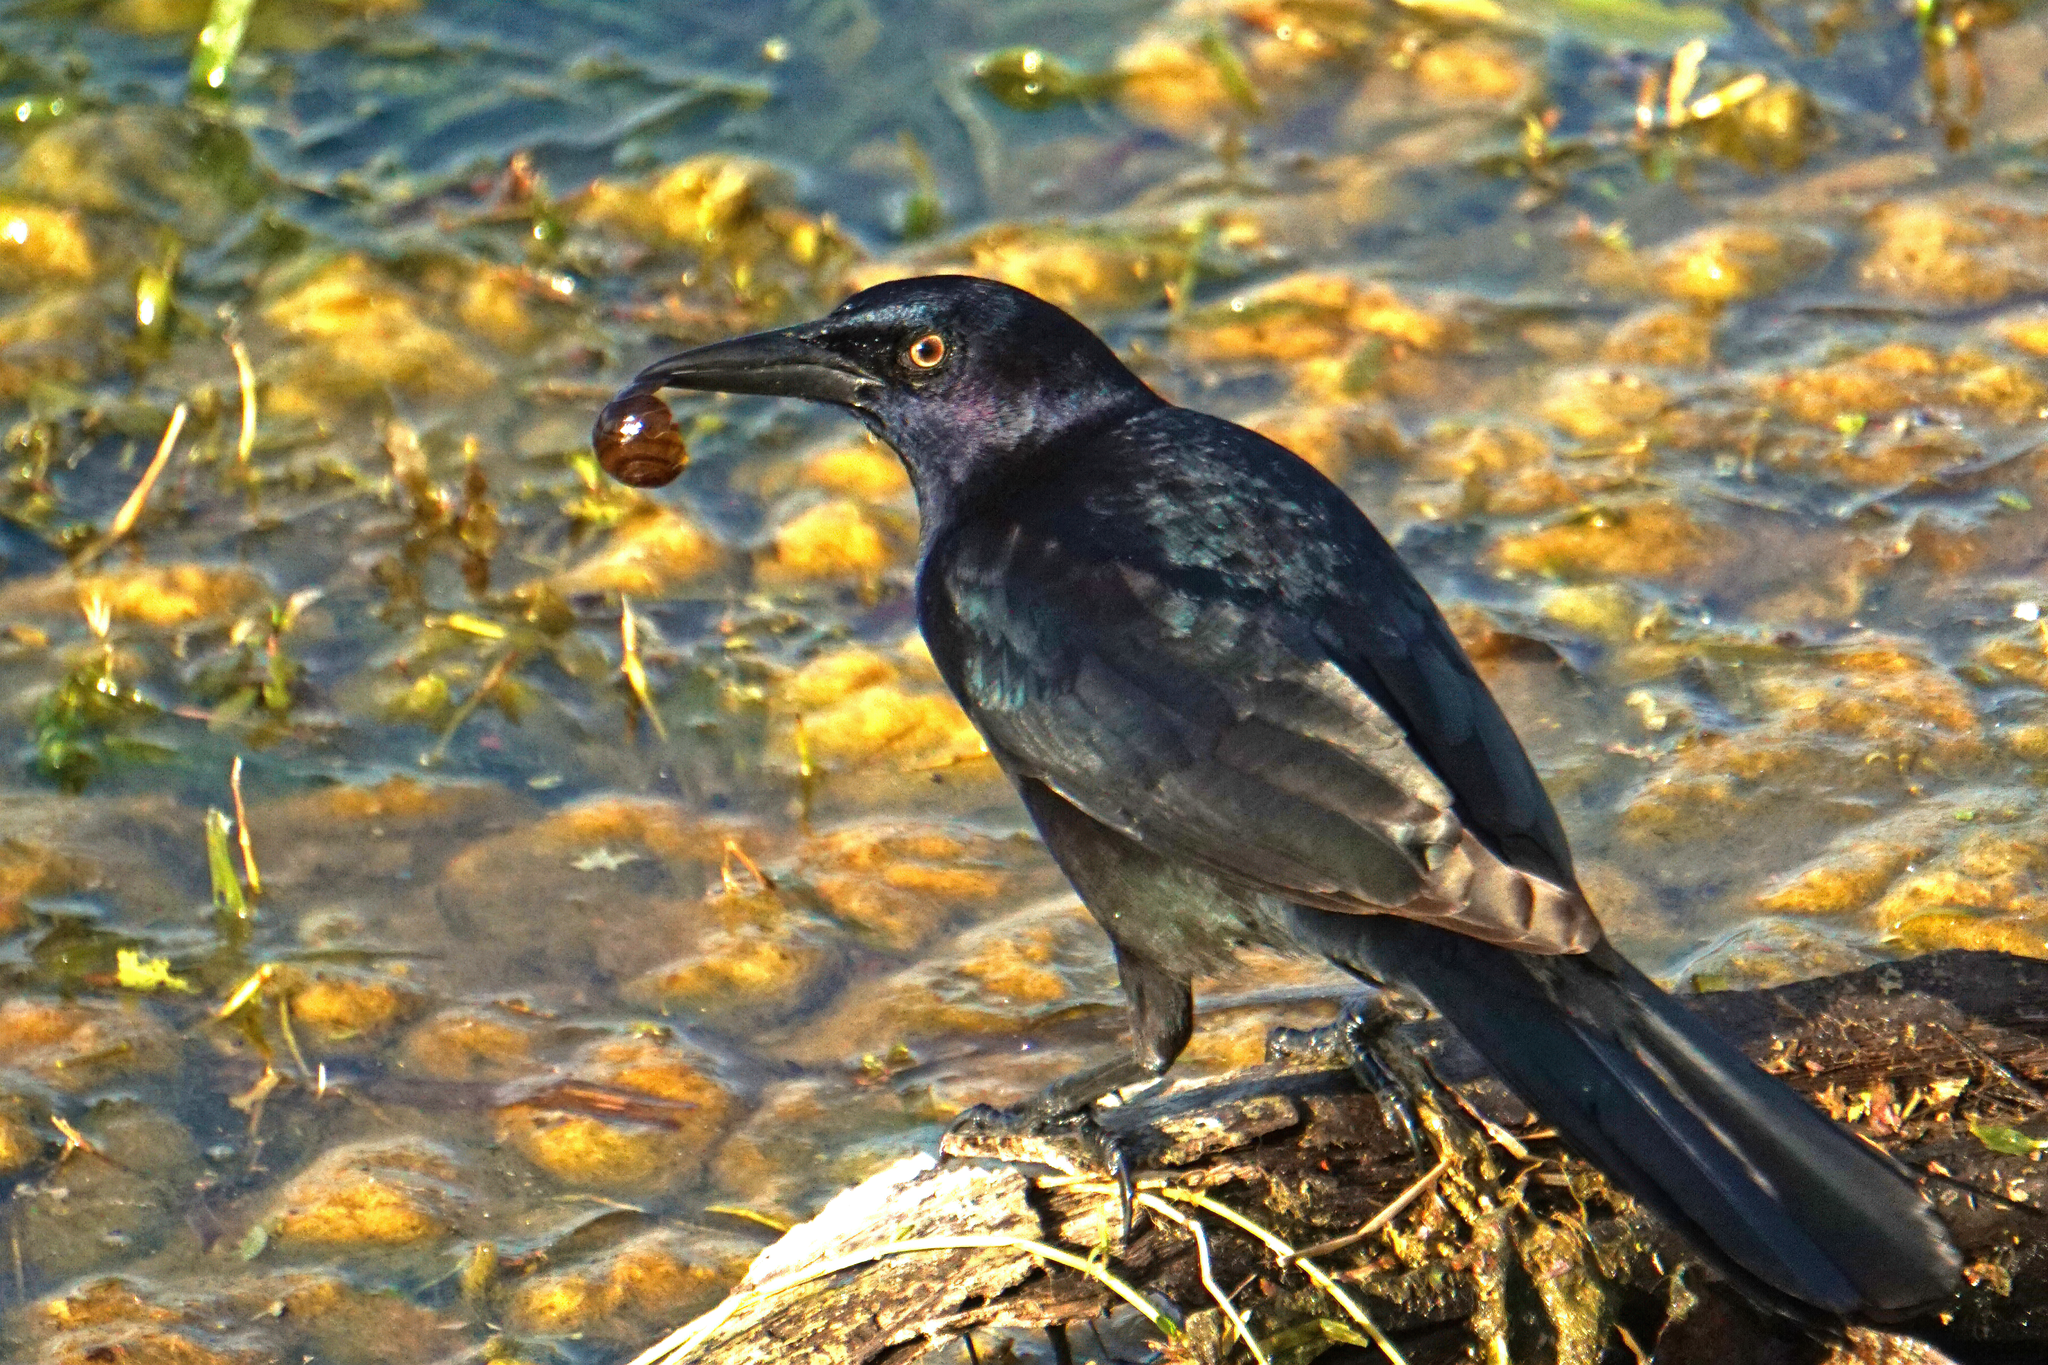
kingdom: Animalia
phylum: Chordata
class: Aves
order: Passeriformes
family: Icteridae
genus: Quiscalus
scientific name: Quiscalus major
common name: Boat-tailed grackle
